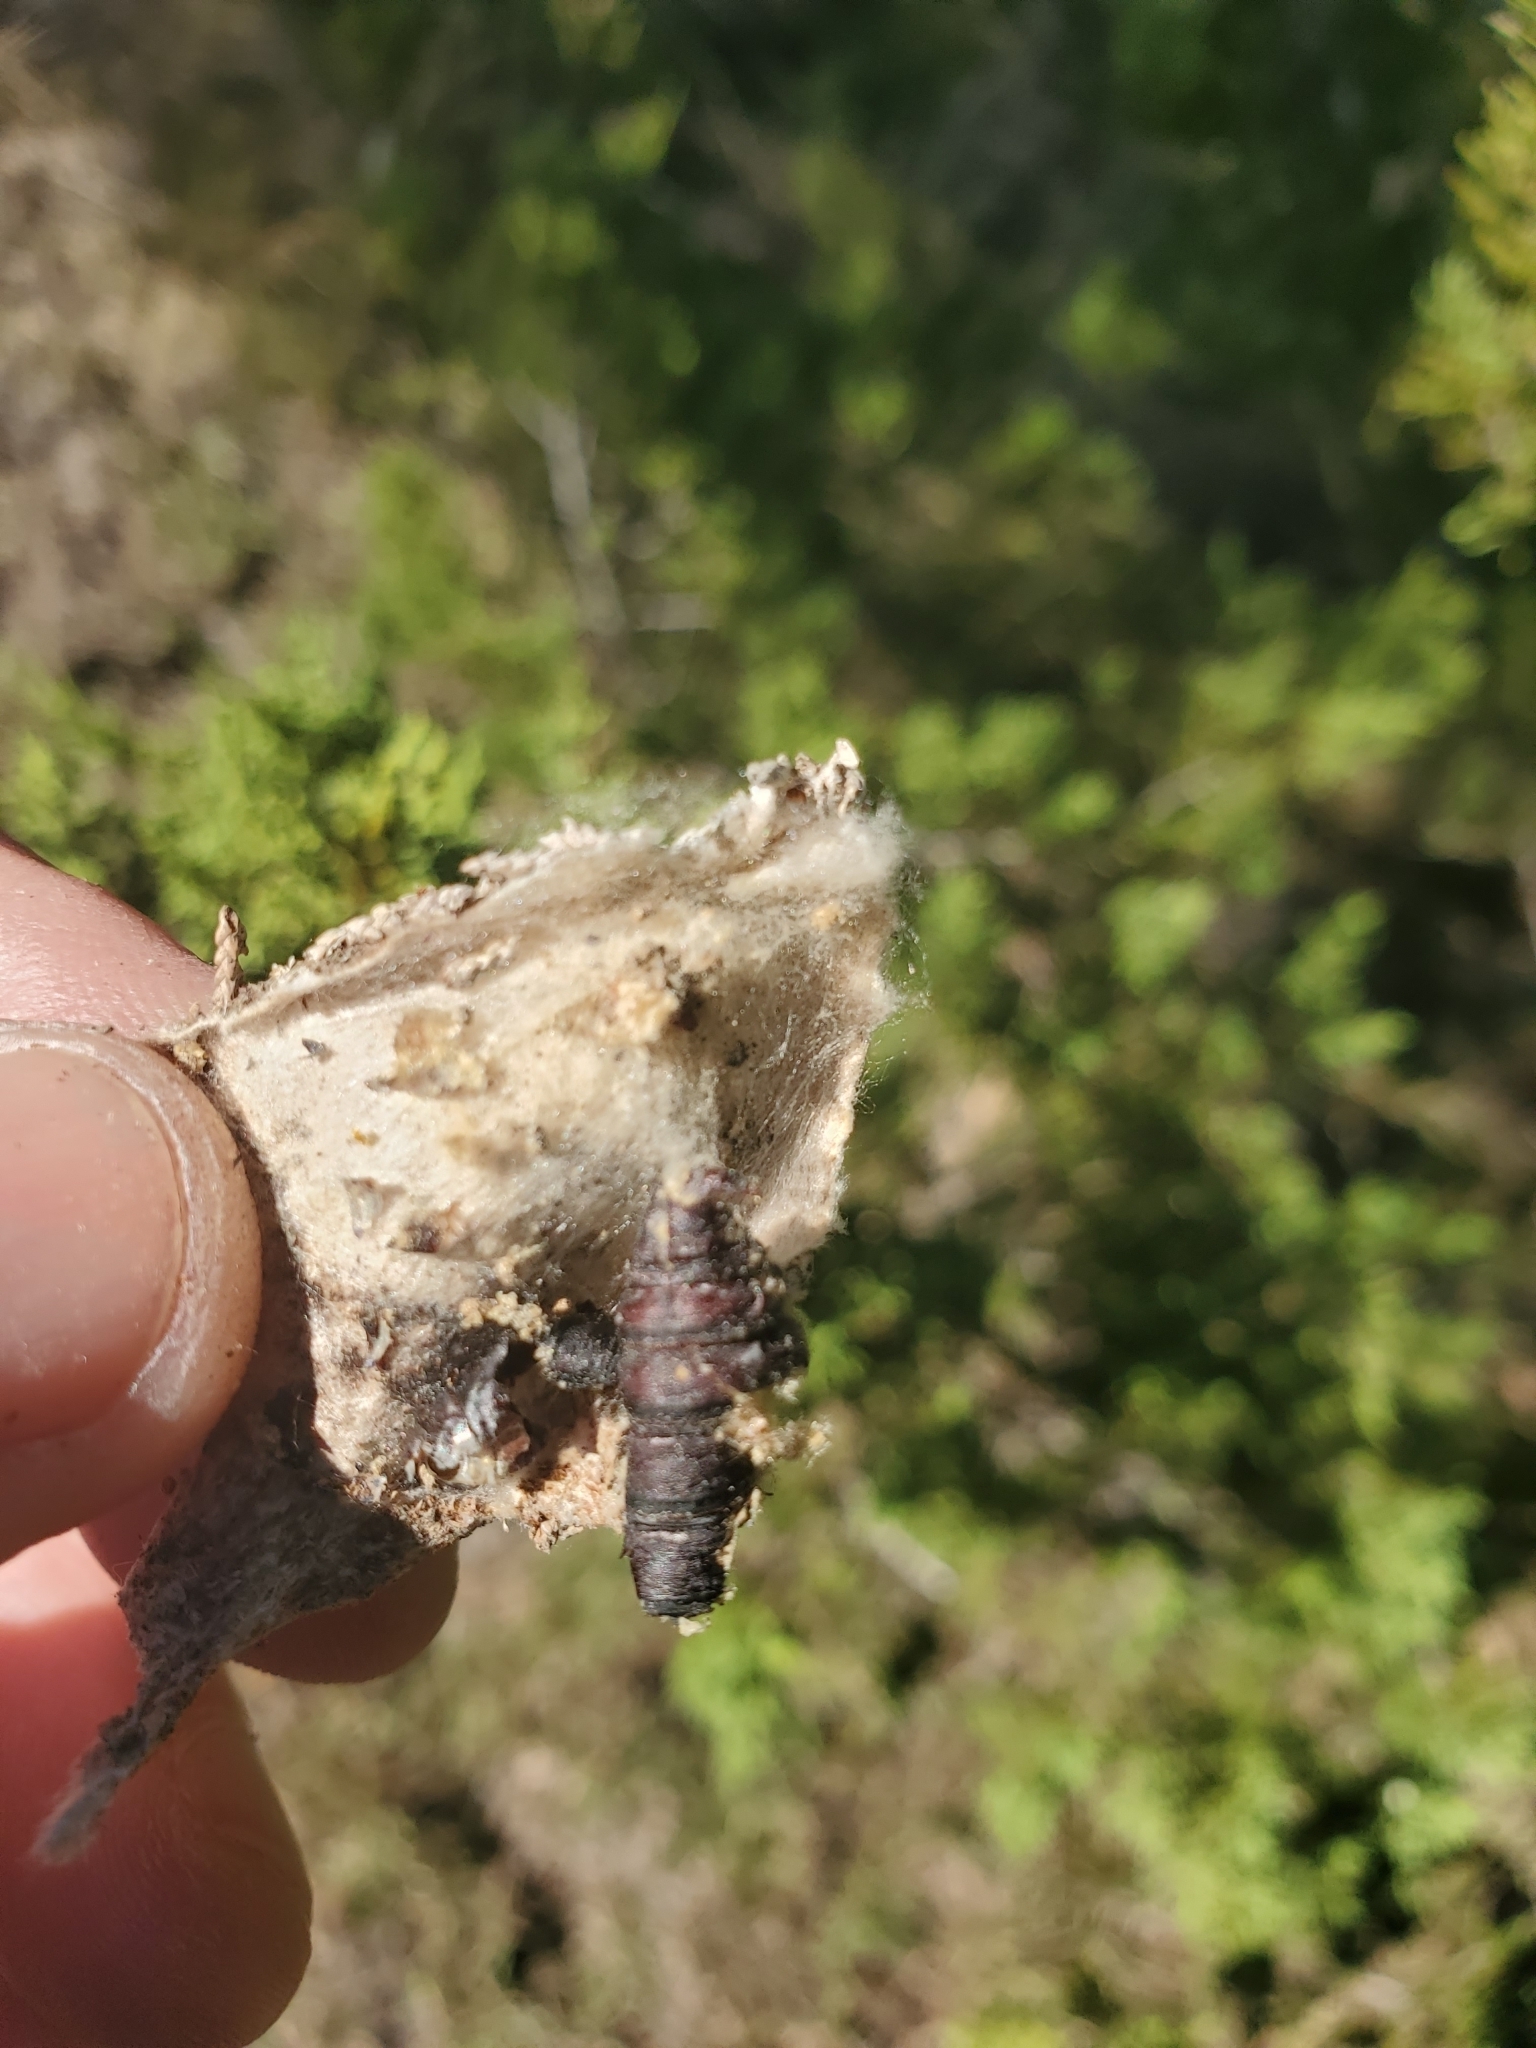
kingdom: Animalia
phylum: Arthropoda
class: Insecta
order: Lepidoptera
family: Psychidae
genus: Thyridopteryx
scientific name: Thyridopteryx ephemeraeformis
